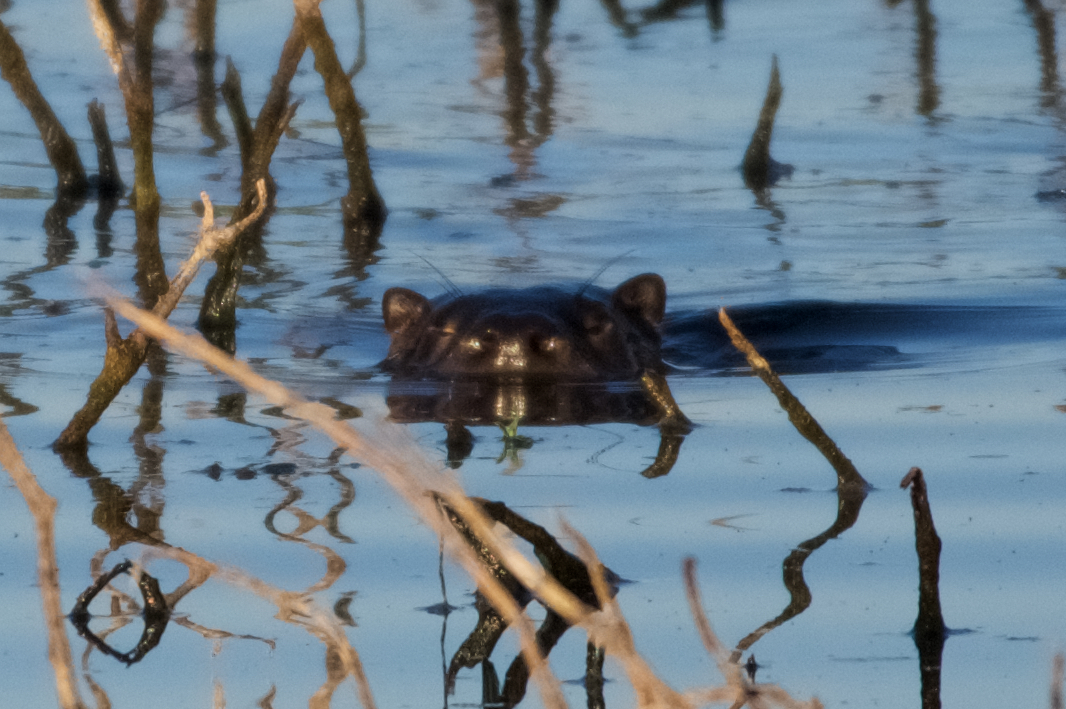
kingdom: Animalia
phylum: Chordata
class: Mammalia
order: Carnivora
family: Mustelidae
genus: Lontra
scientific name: Lontra canadensis
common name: North american river otter
